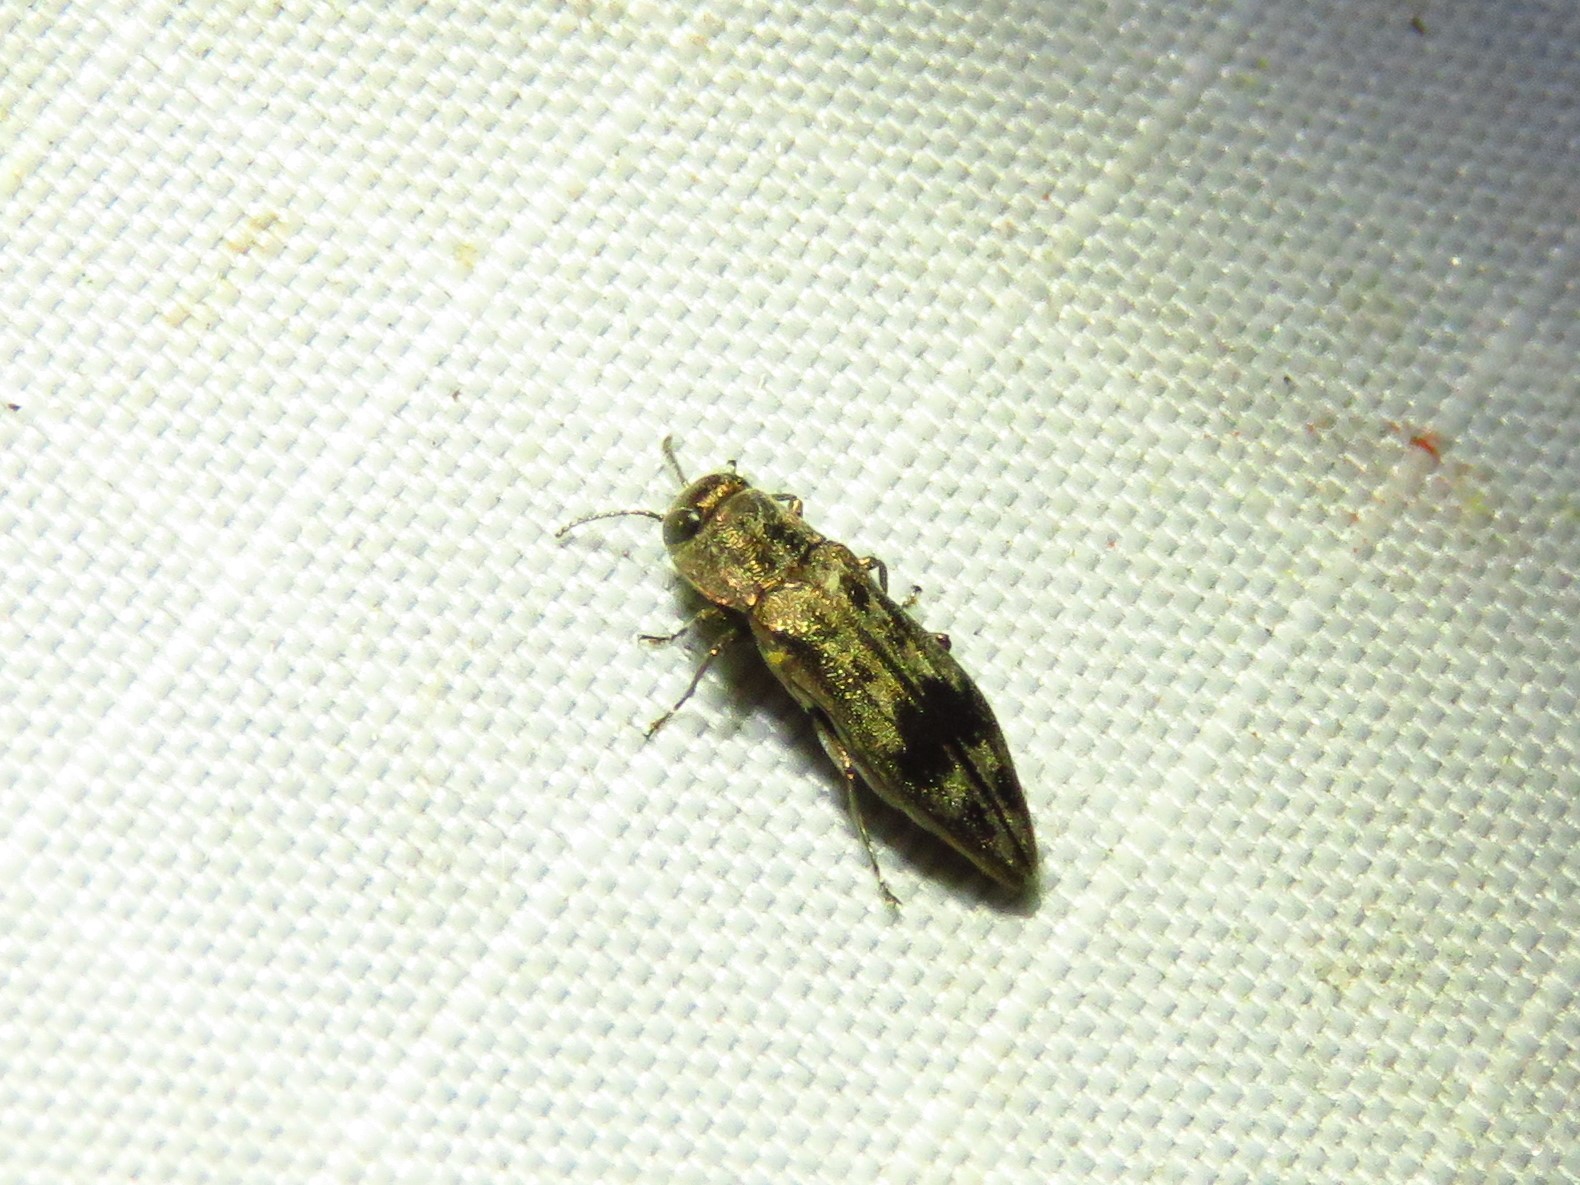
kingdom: Animalia
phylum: Arthropoda
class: Insecta
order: Coleoptera
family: Buprestidae
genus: Agrilus
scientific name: Agrilus lecontei
